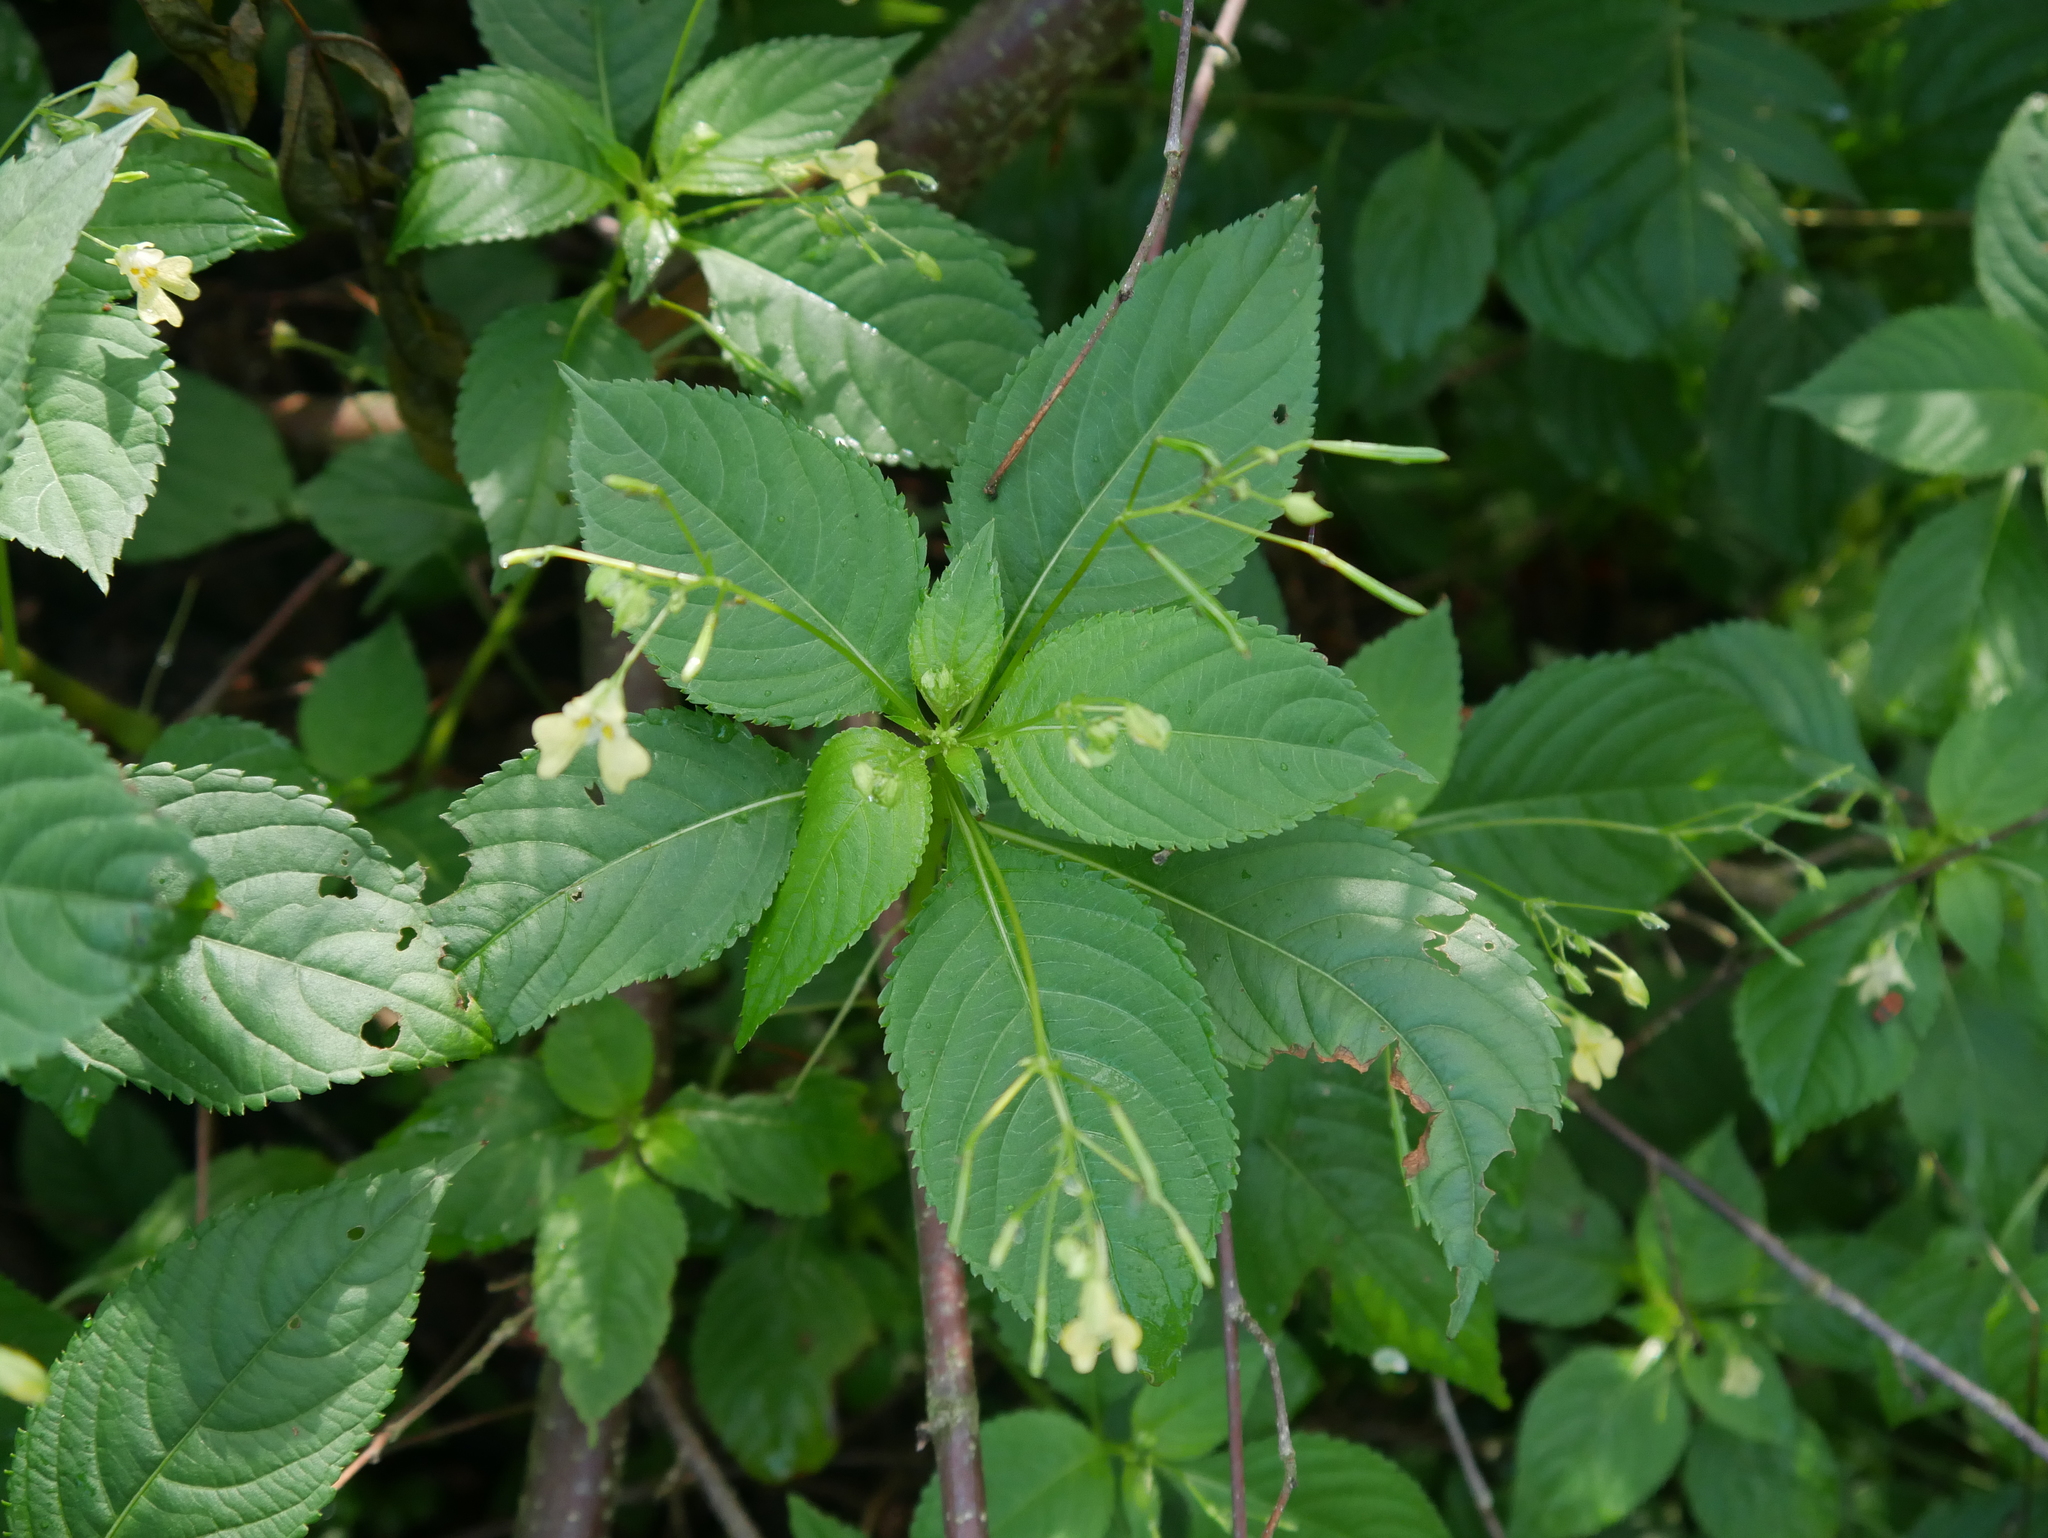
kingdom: Plantae
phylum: Tracheophyta
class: Magnoliopsida
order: Ericales
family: Balsaminaceae
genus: Impatiens
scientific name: Impatiens parviflora
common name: Small balsam
